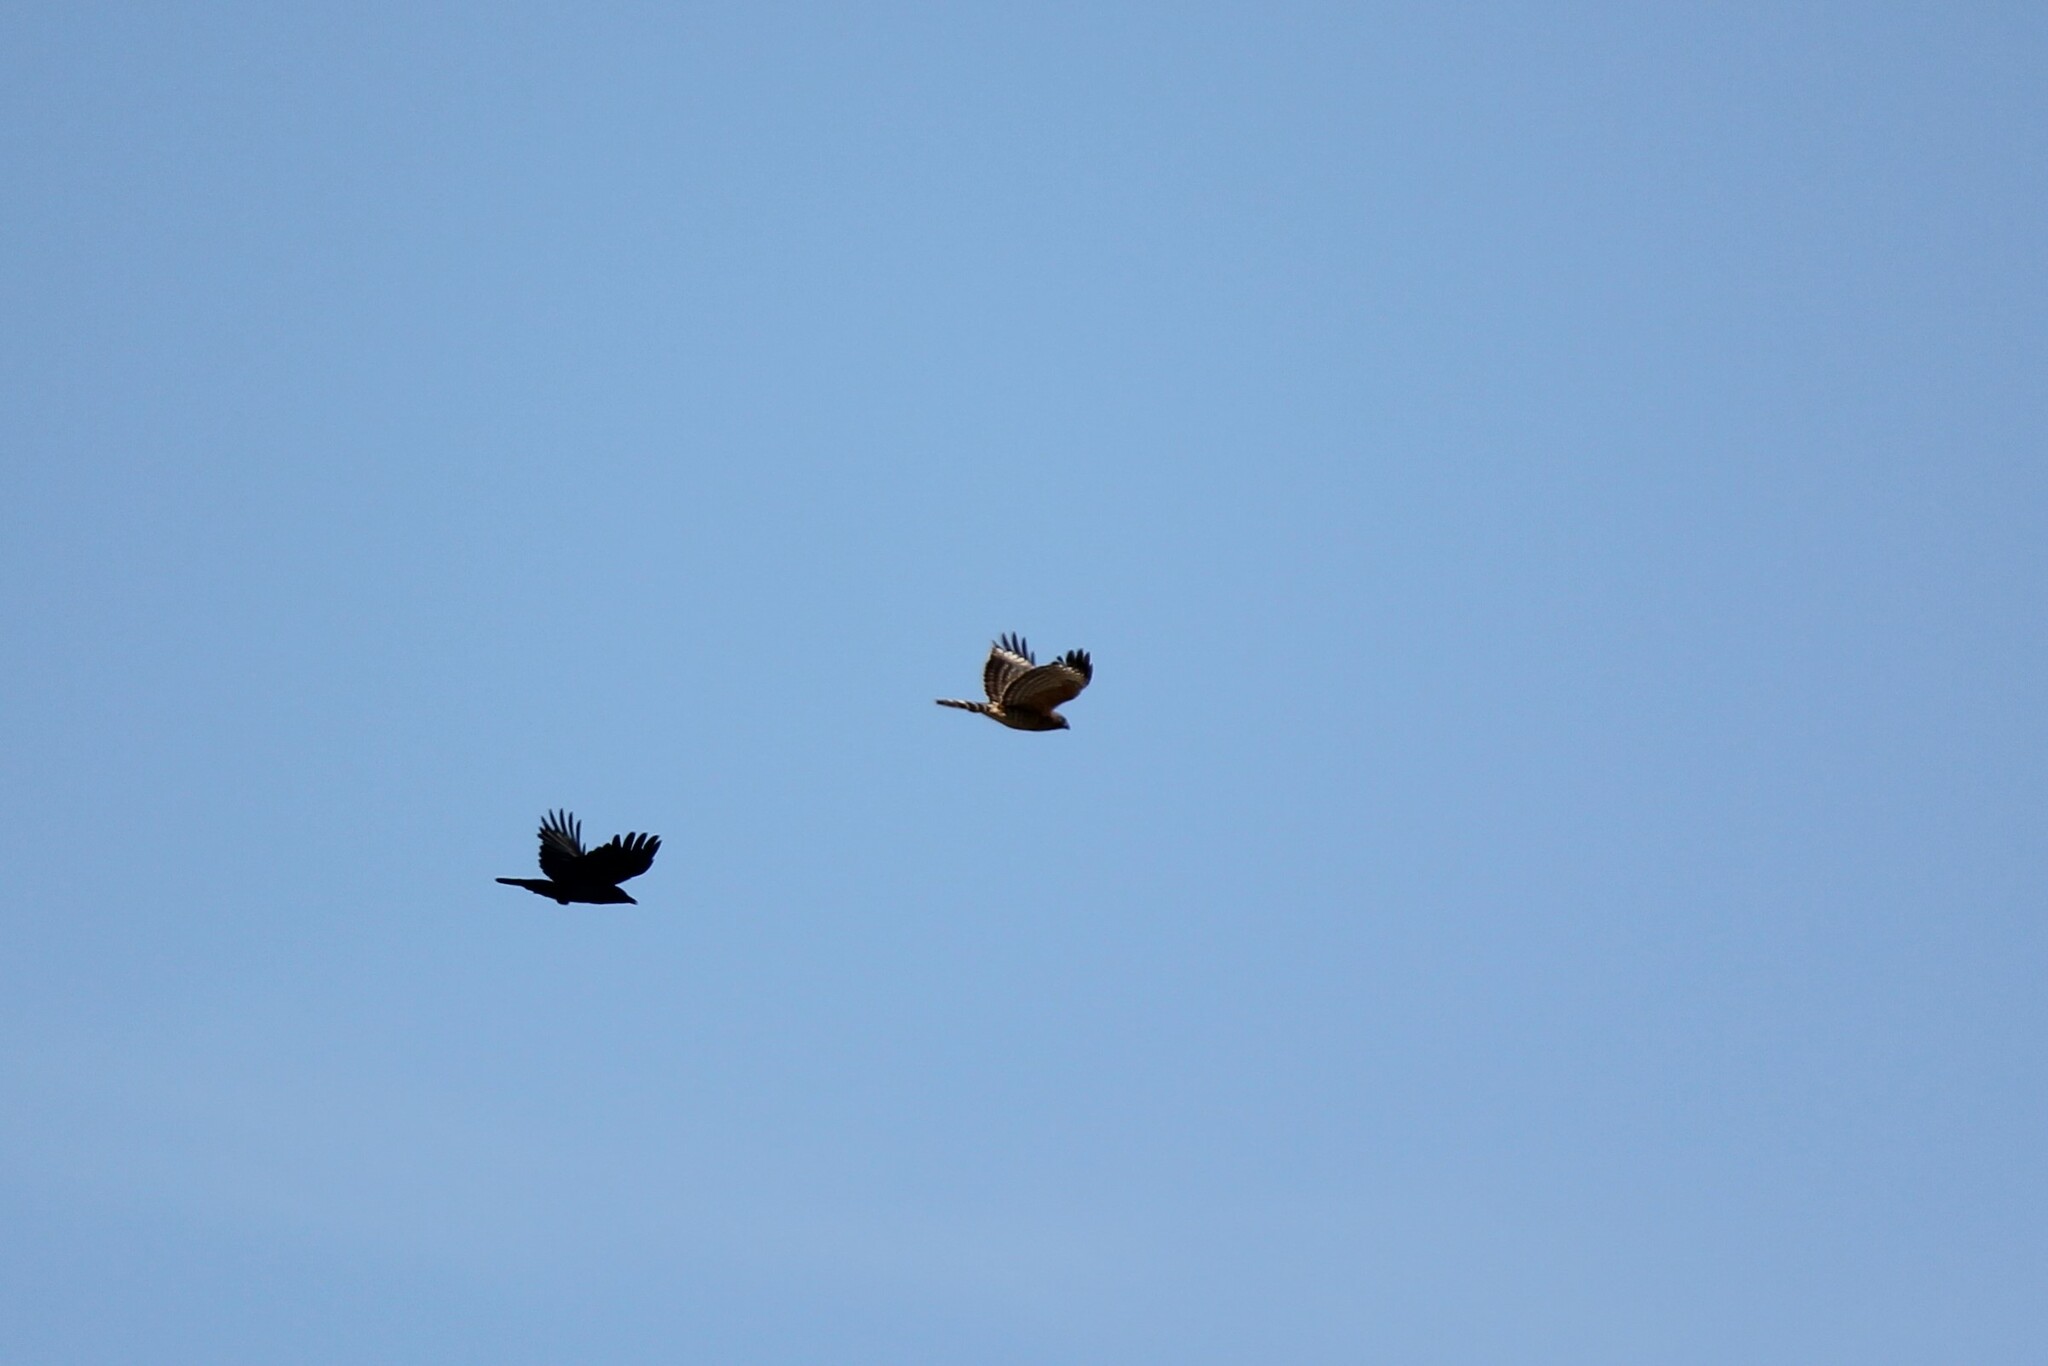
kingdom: Animalia
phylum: Chordata
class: Aves
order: Accipitriformes
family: Accipitridae
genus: Buteo
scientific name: Buteo lineatus
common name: Red-shouldered hawk
